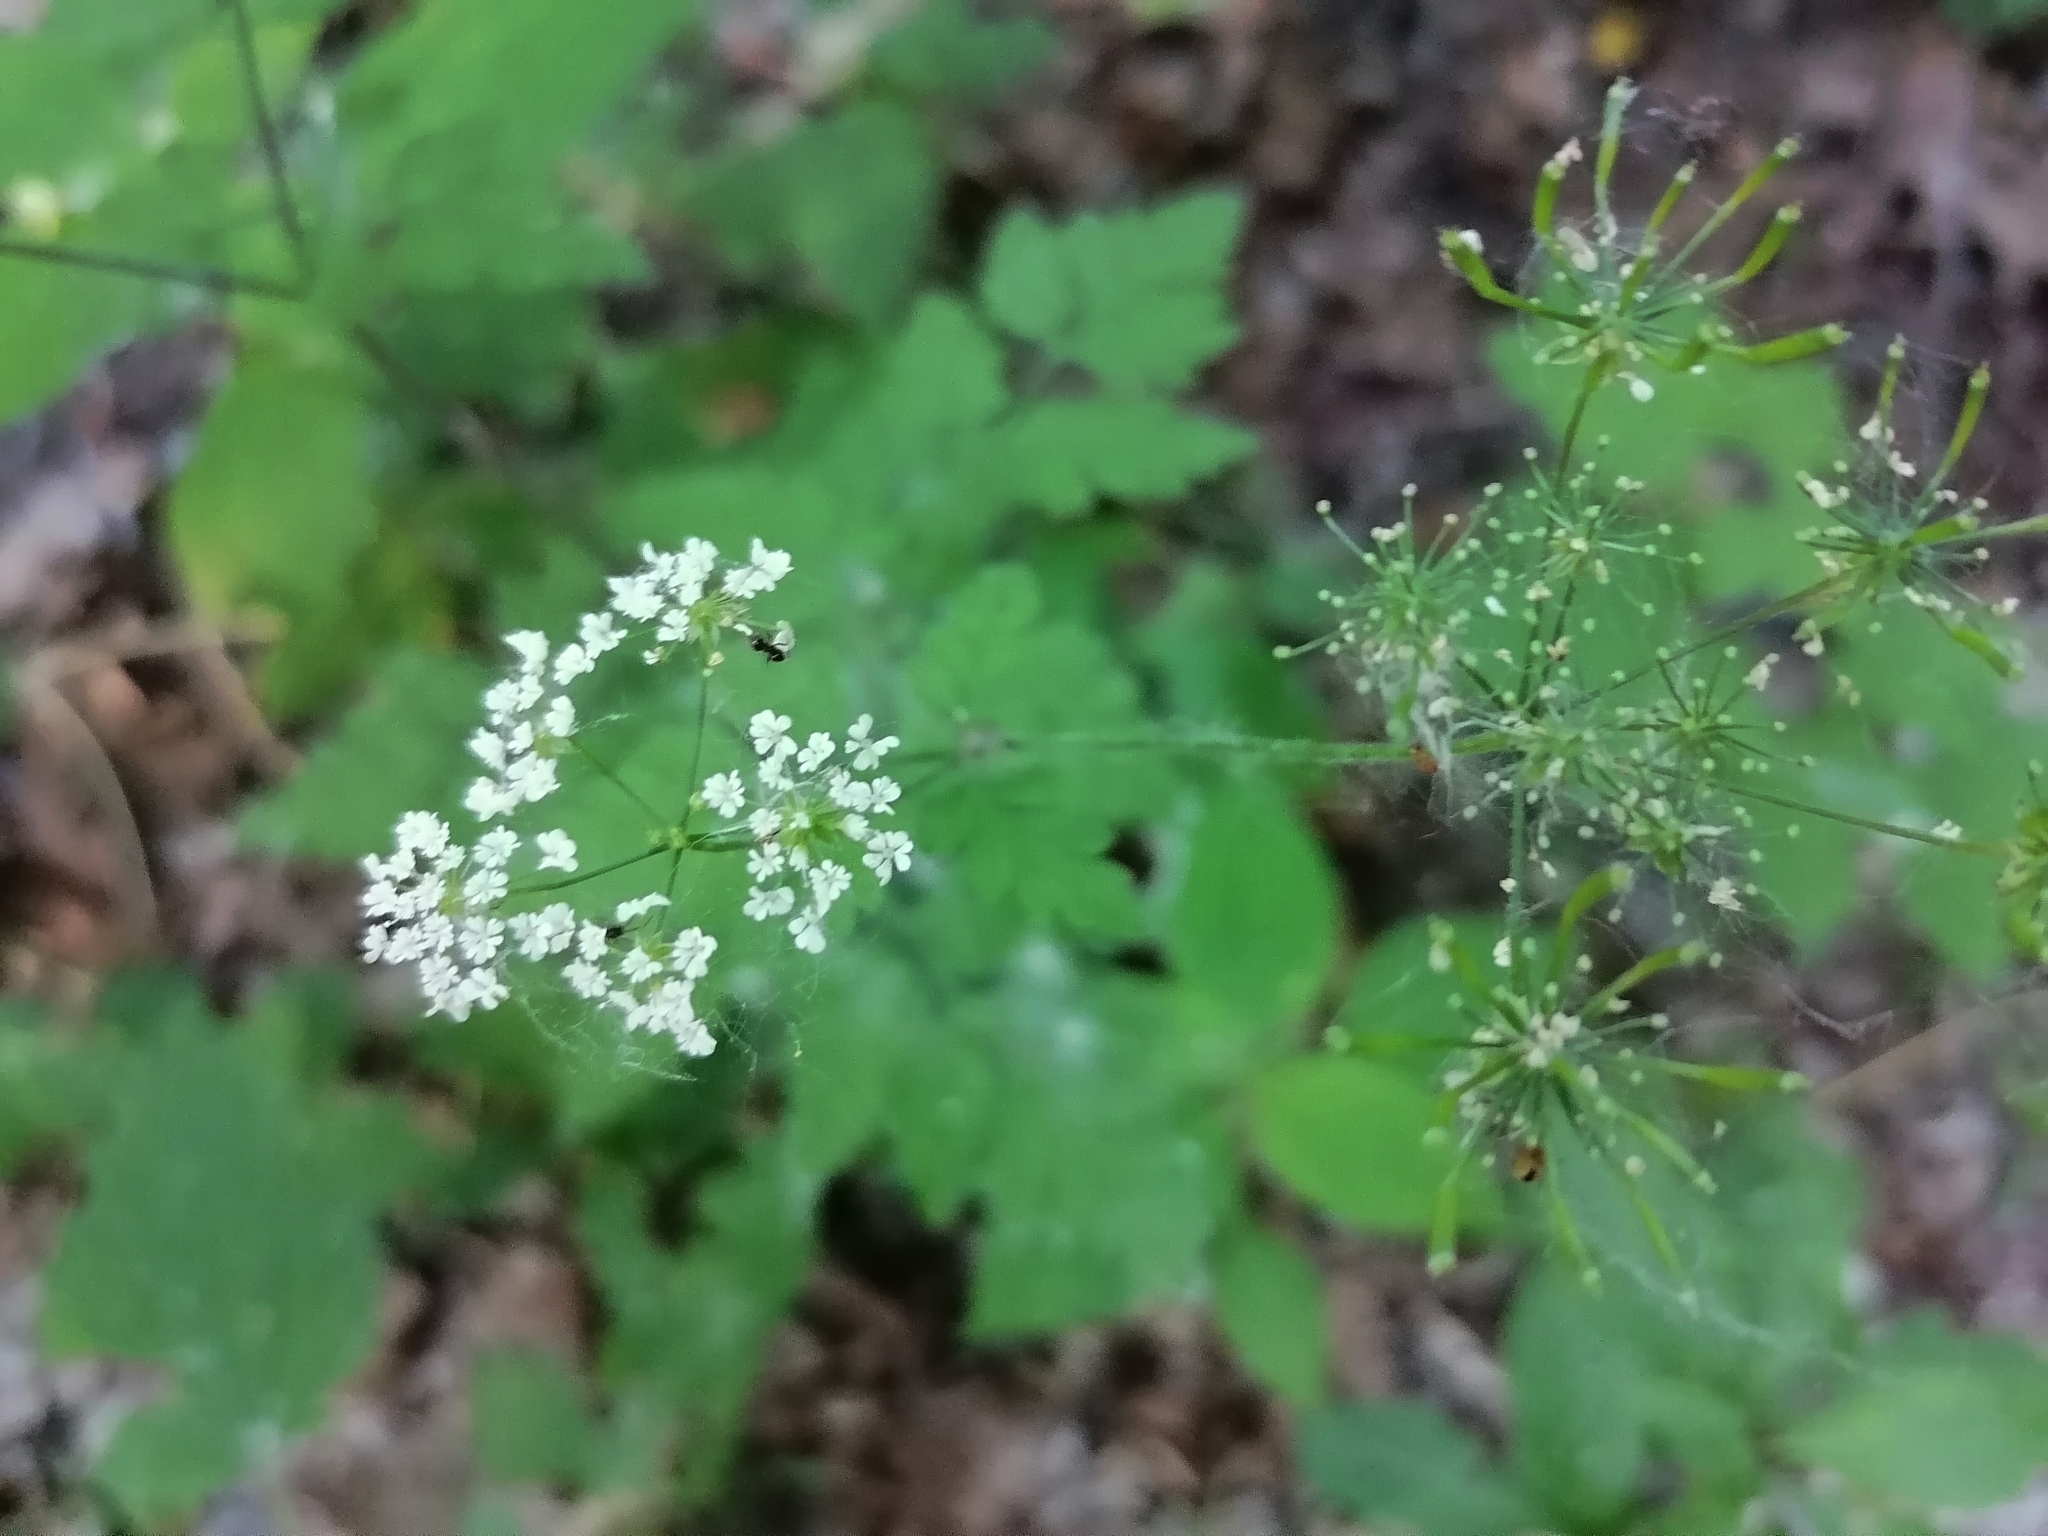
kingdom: Plantae
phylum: Tracheophyta
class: Magnoliopsida
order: Apiales
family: Apiaceae
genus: Chaerophyllum
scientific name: Chaerophyllum temulum
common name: Rough chervil
